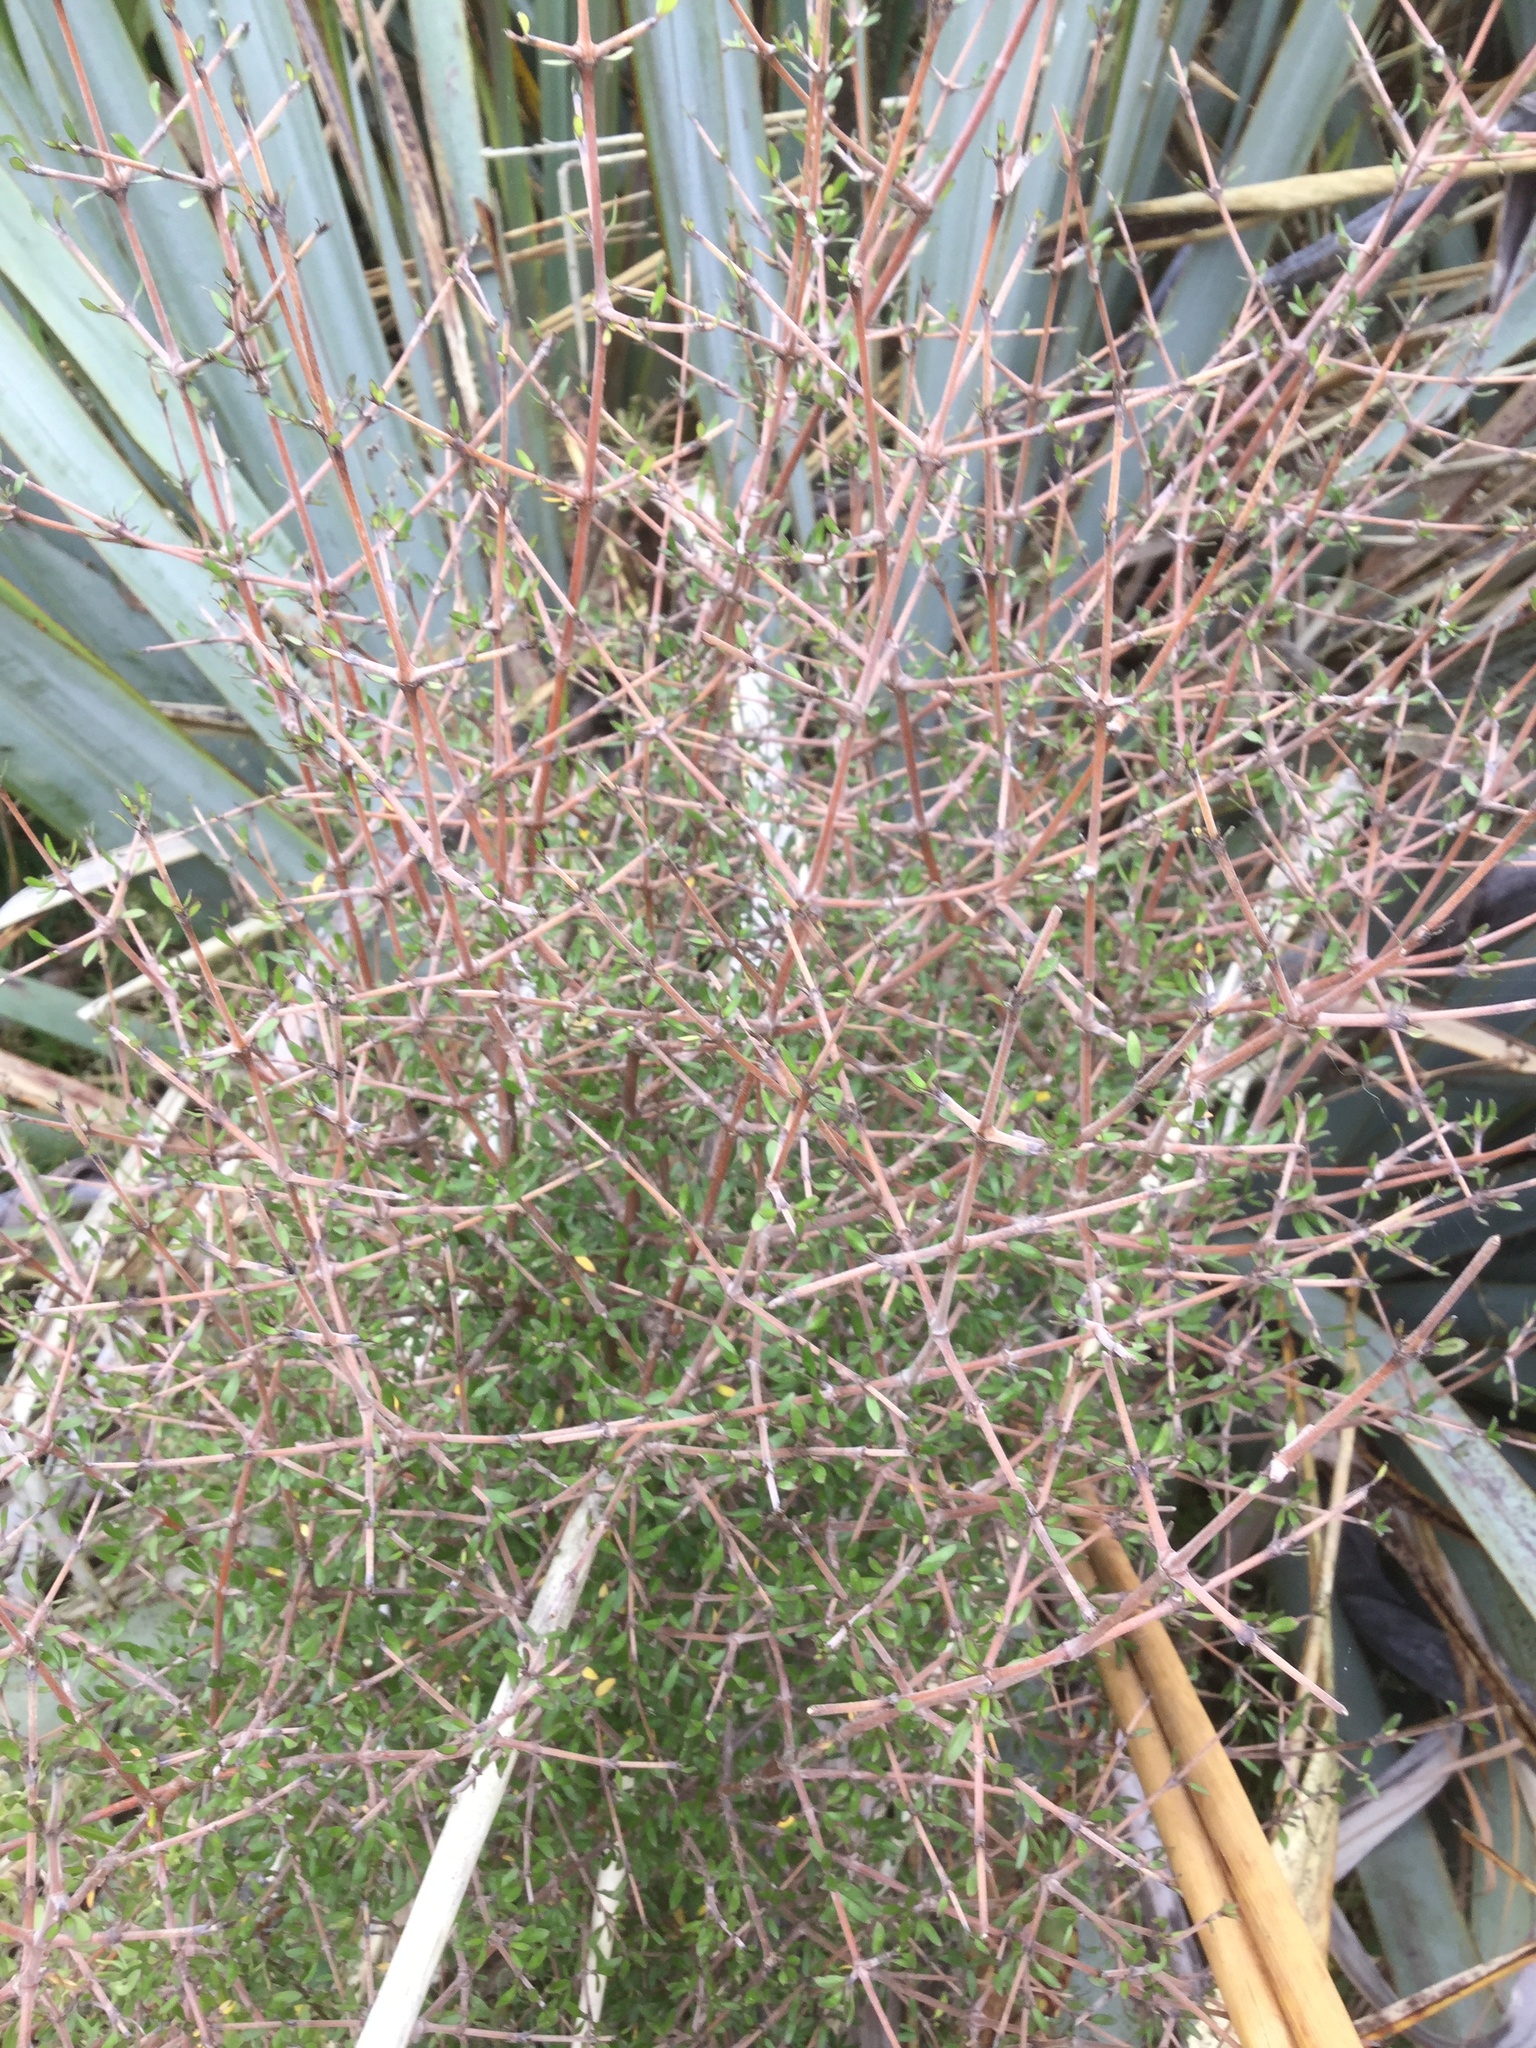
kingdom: Plantae
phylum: Tracheophyta
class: Magnoliopsida
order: Gentianales
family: Rubiaceae
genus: Coprosma
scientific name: Coprosma propinqua
